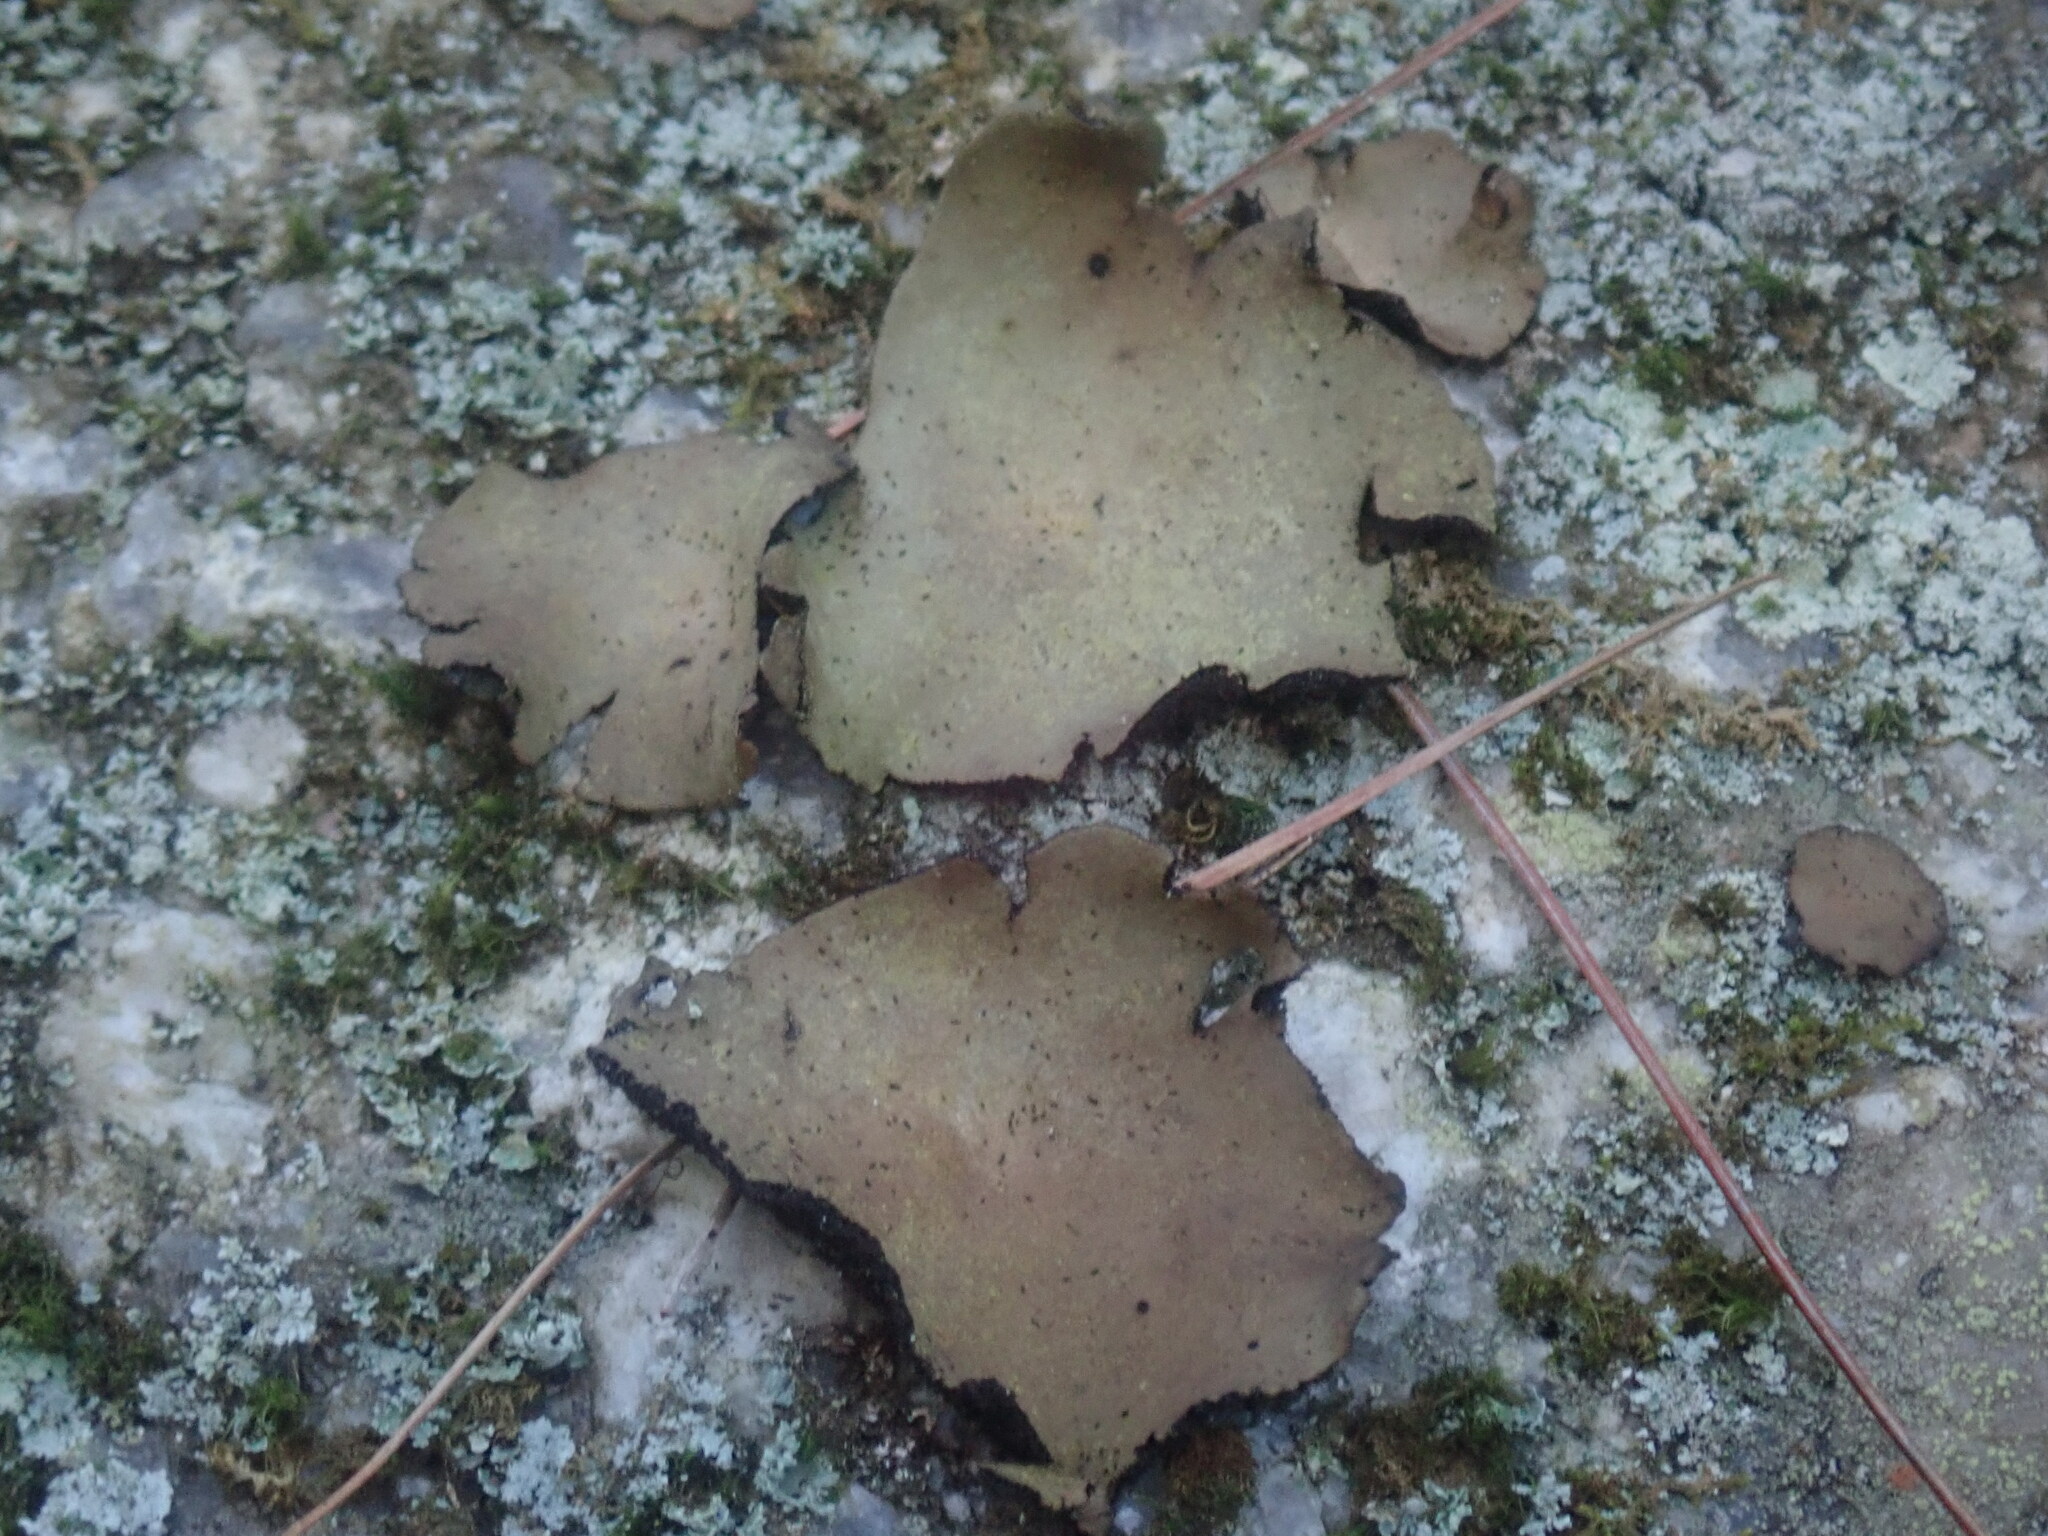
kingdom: Fungi
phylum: Ascomycota
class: Lecanoromycetes
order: Umbilicariales
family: Umbilicariaceae
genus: Umbilicaria
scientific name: Umbilicaria mammulata
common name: Smooth rock tripe
